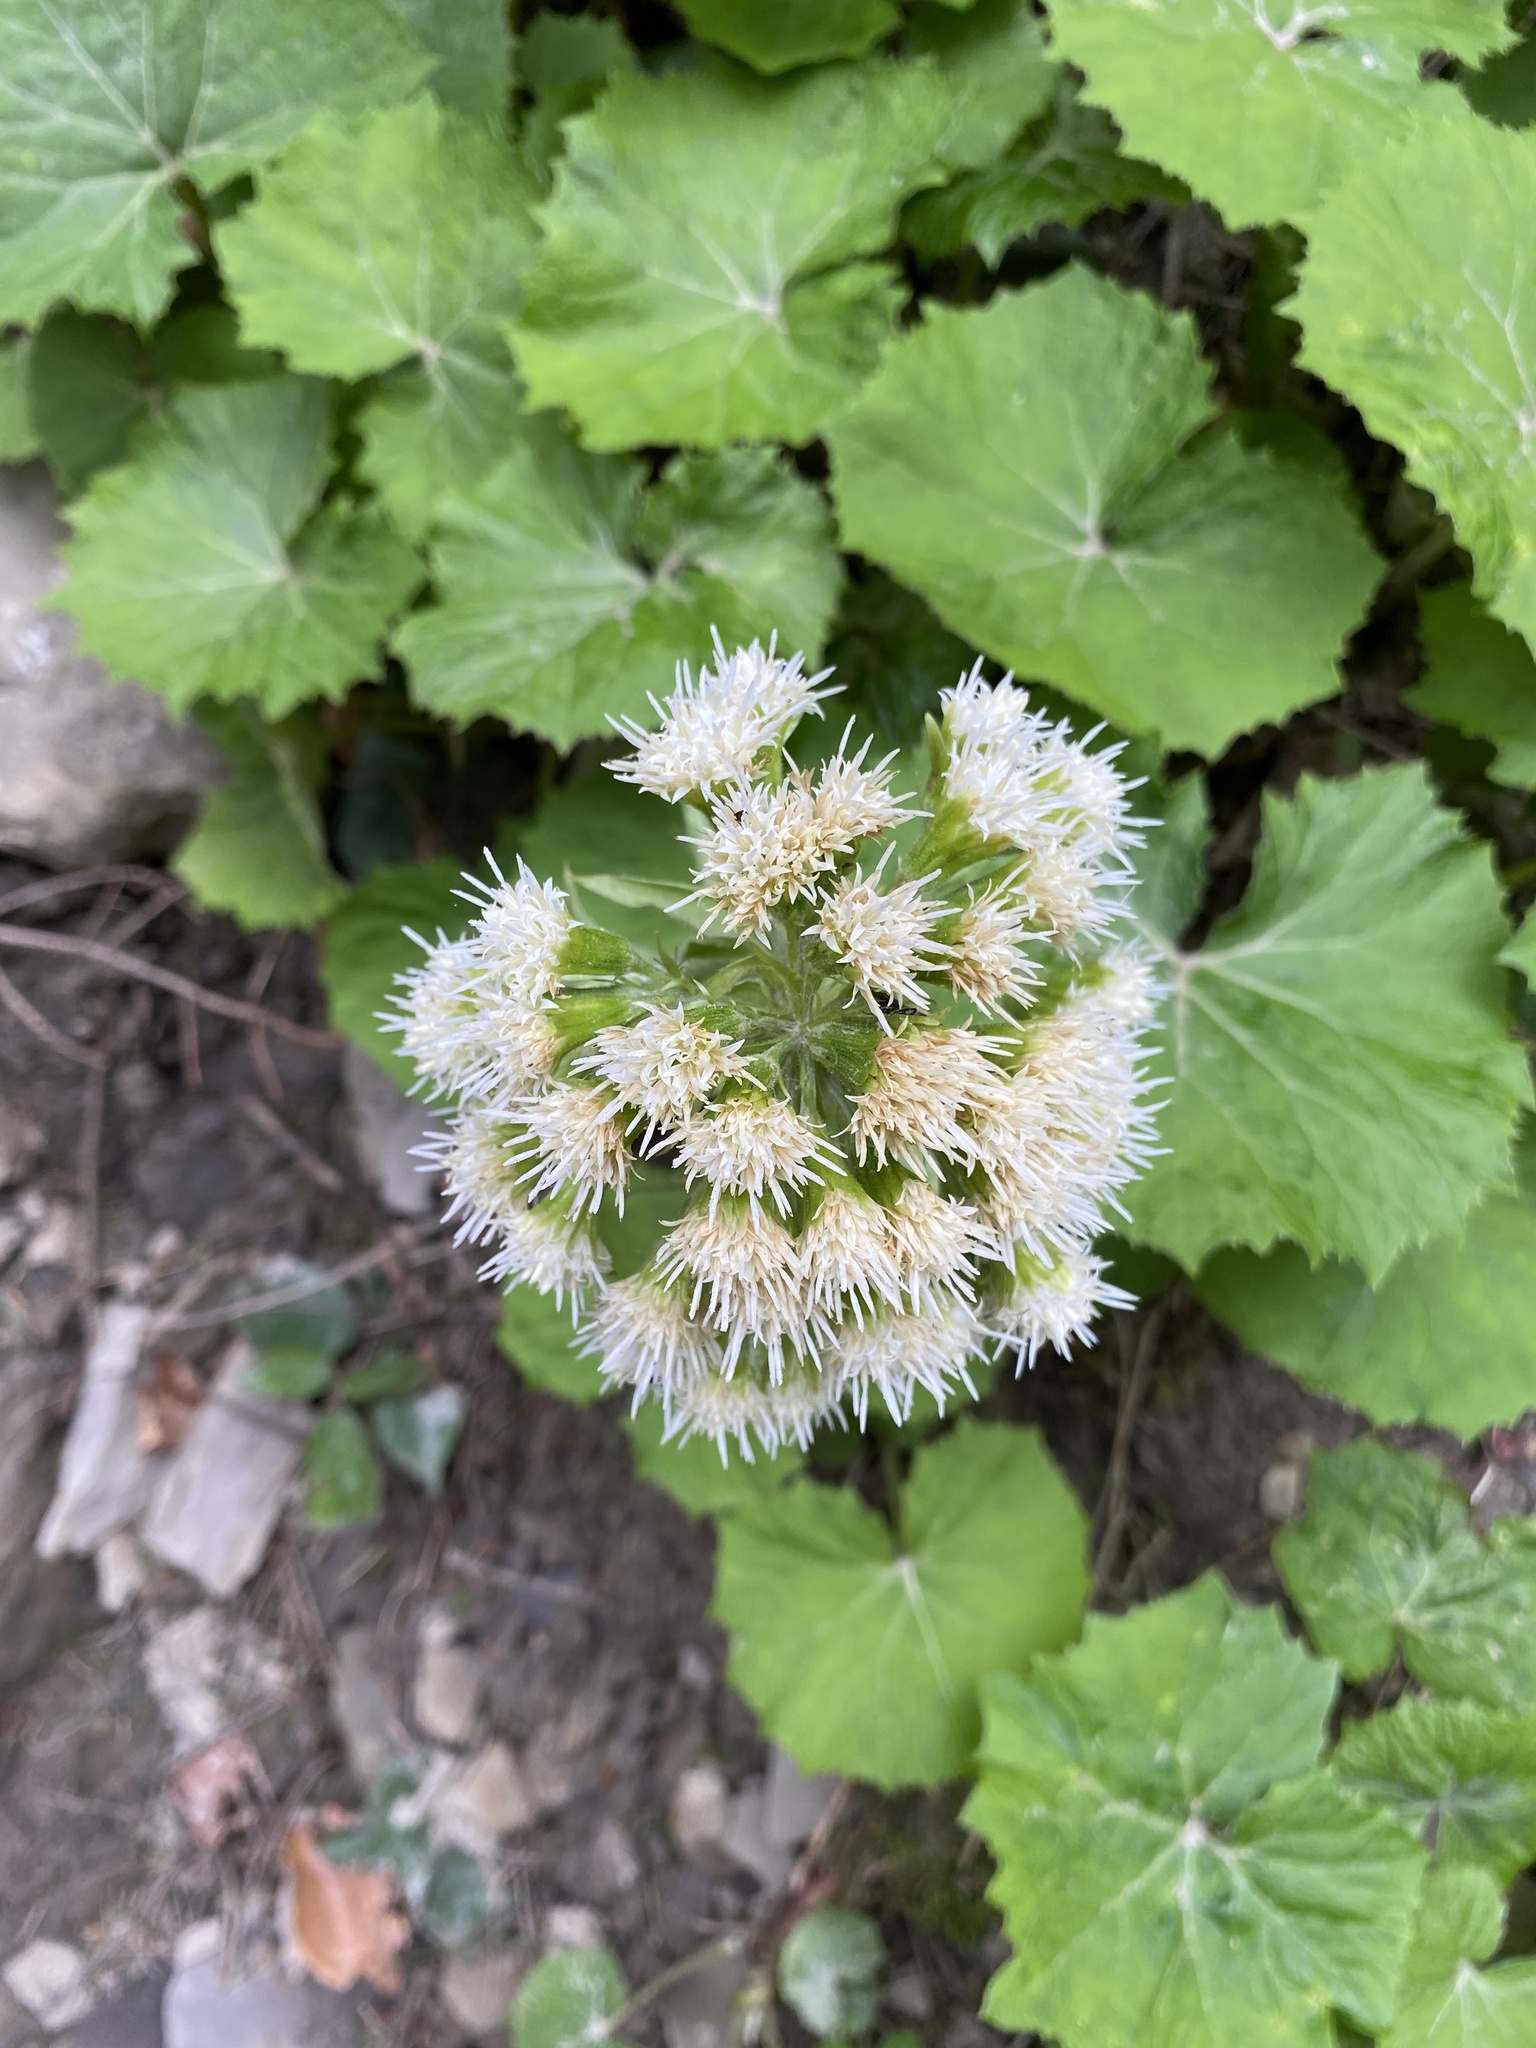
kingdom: Plantae
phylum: Tracheophyta
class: Magnoliopsida
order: Asterales
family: Asteraceae
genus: Petasites
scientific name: Petasites albus
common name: White butterbur
